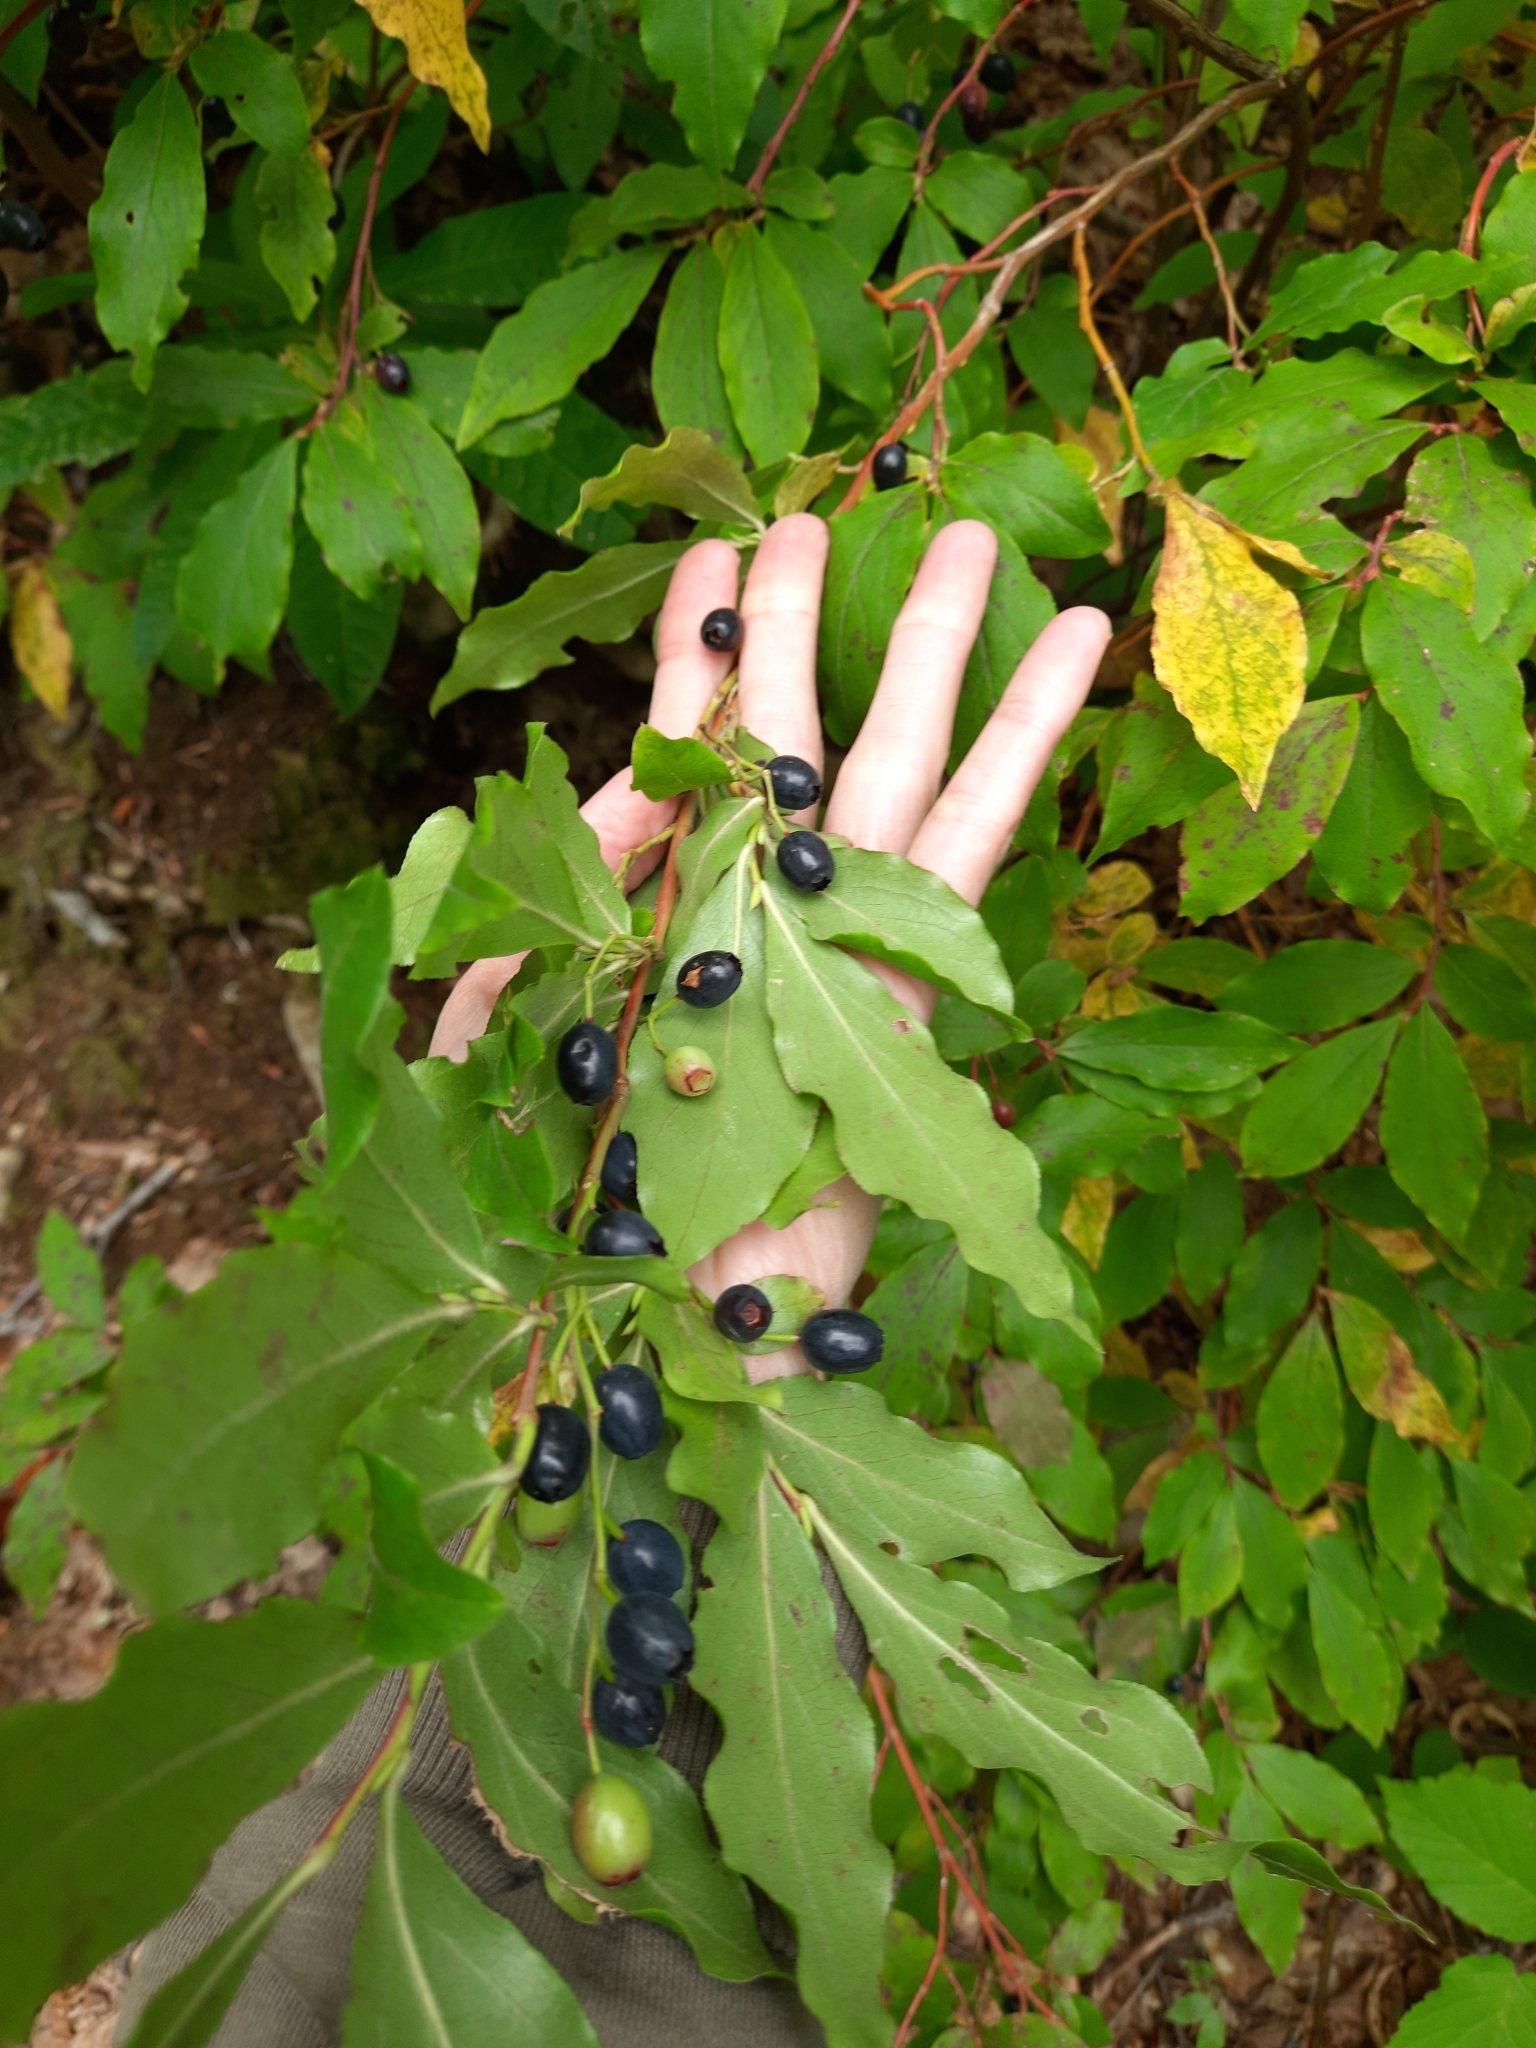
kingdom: Plantae
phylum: Tracheophyta
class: Magnoliopsida
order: Ericales
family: Ericaceae
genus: Vaccinium
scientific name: Vaccinium arctostaphylos
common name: Caucasian whortleberry
